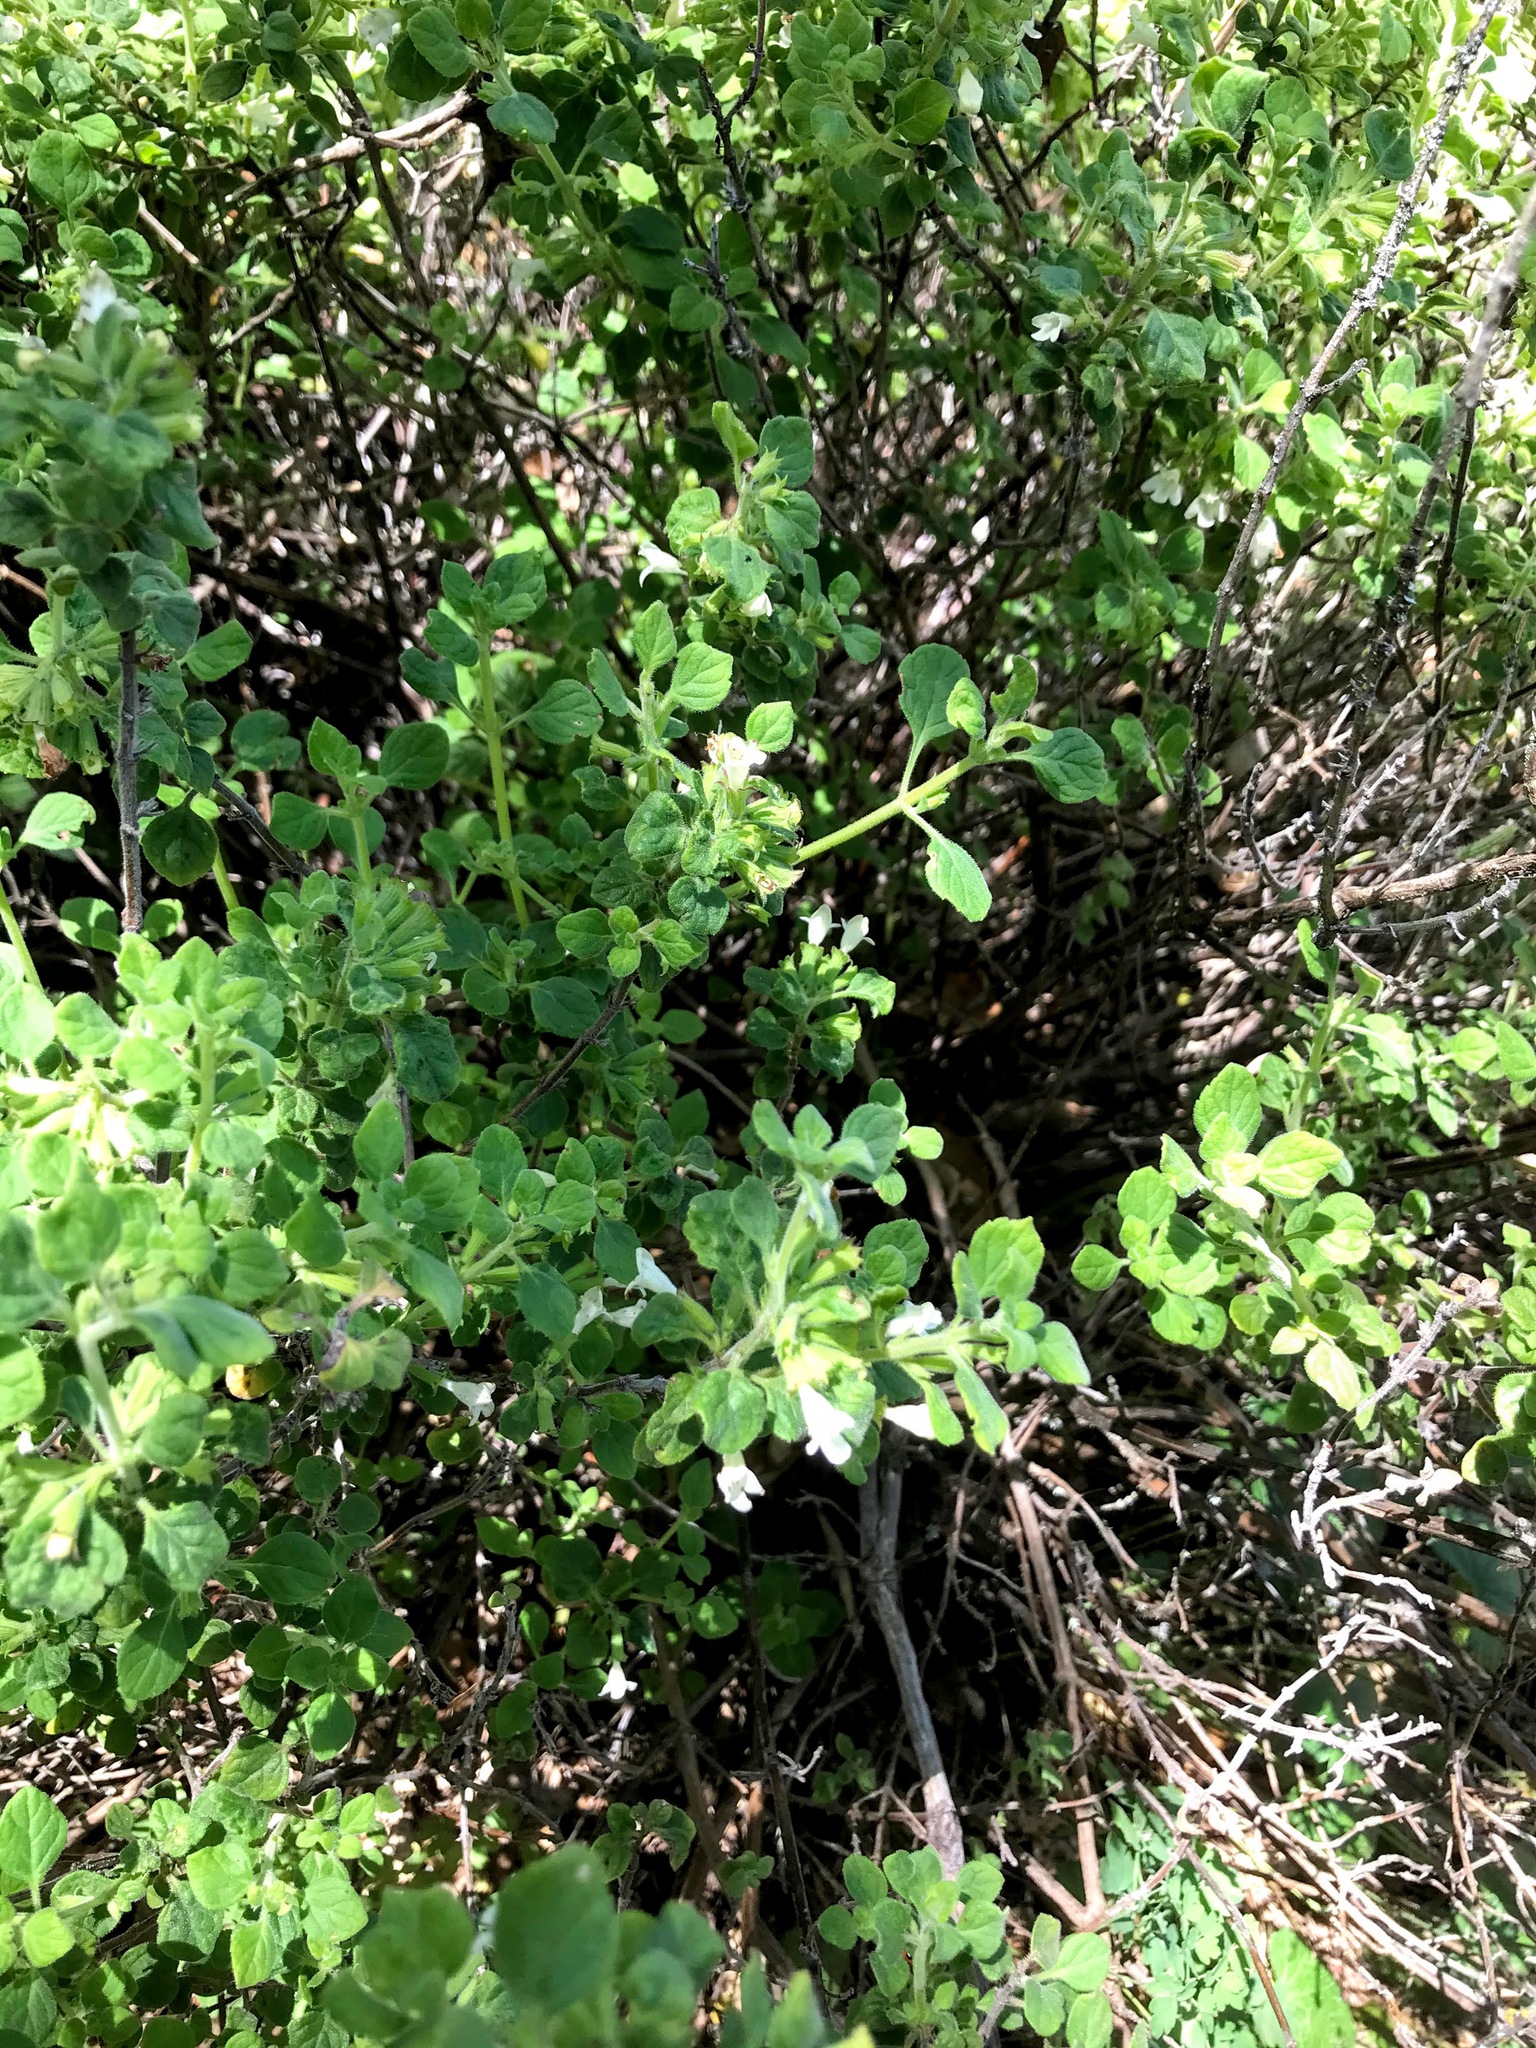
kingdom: Plantae
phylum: Tracheophyta
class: Magnoliopsida
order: Lamiales
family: Lamiaceae
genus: Clinopodium
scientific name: Clinopodium chandleri
